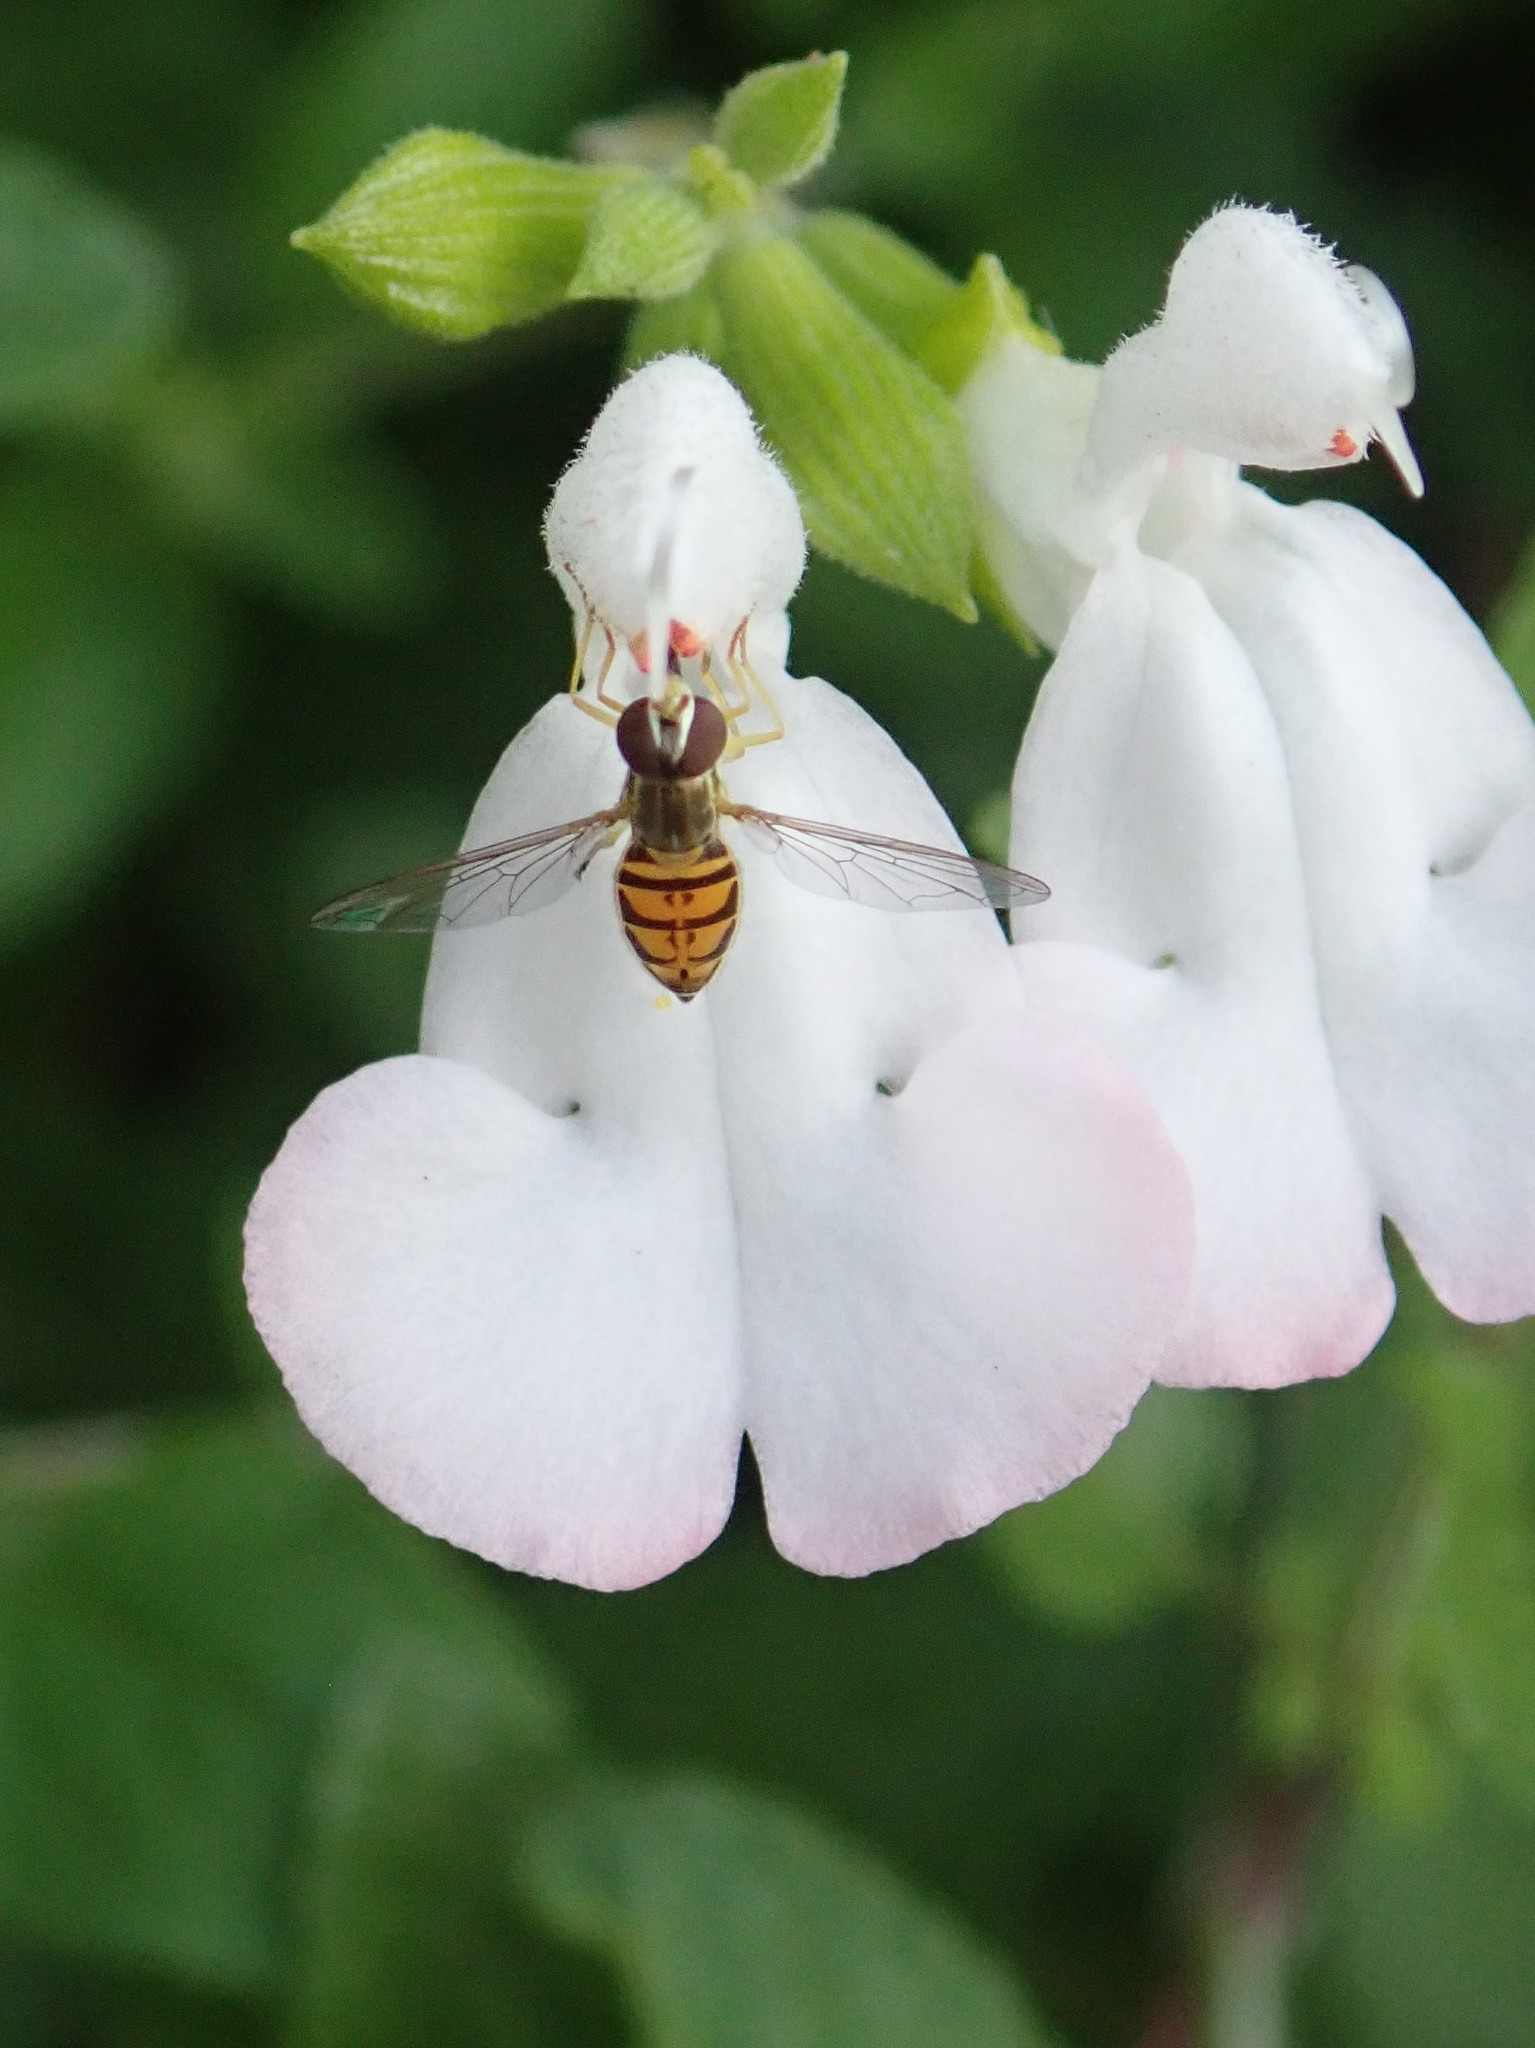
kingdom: Animalia
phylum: Arthropoda
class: Insecta
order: Diptera
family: Syrphidae
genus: Toxomerus
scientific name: Toxomerus marginatus
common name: Syrphid fly
